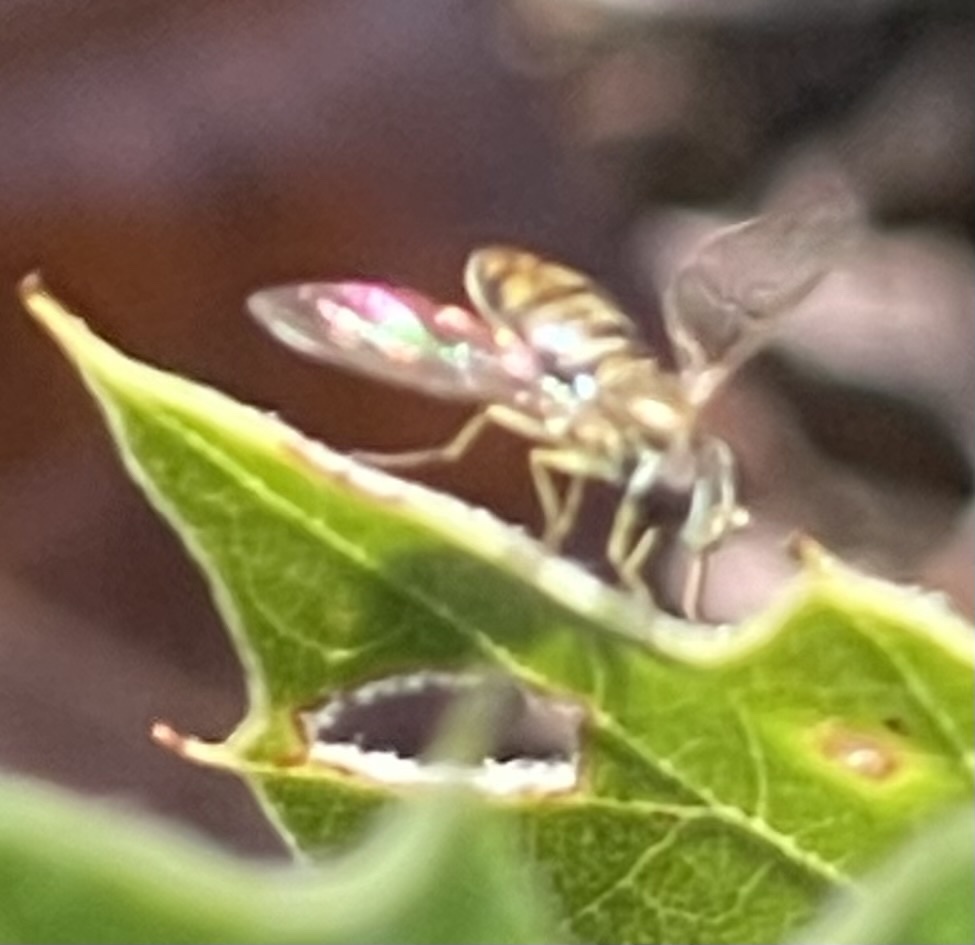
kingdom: Animalia
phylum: Arthropoda
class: Insecta
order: Diptera
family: Syrphidae
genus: Toxomerus
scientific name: Toxomerus marginatus
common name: Syrphid fly
